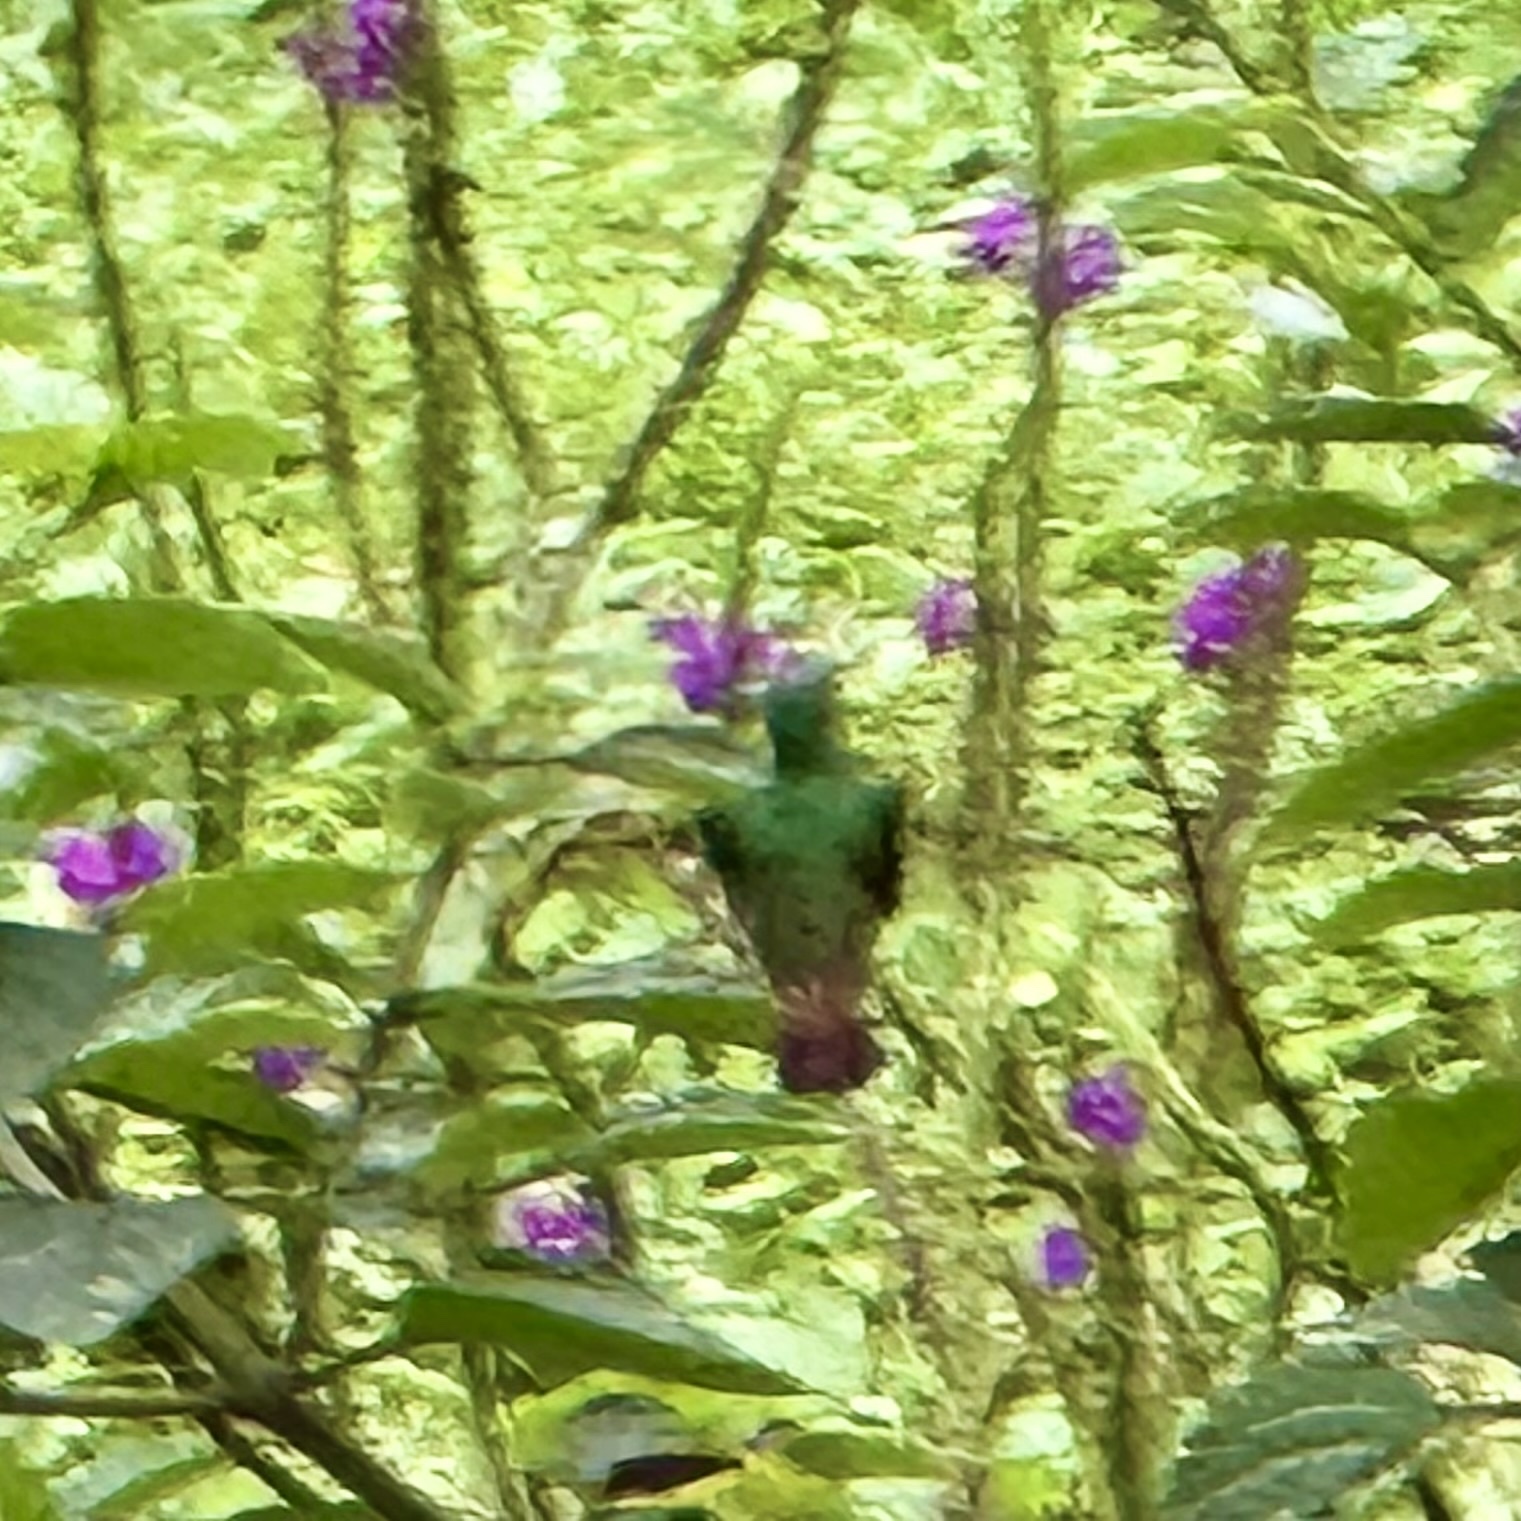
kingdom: Animalia
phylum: Chordata
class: Aves
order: Apodiformes
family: Trochilidae
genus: Amazilia
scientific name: Amazilia tzacatl
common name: Rufous-tailed hummingbird
